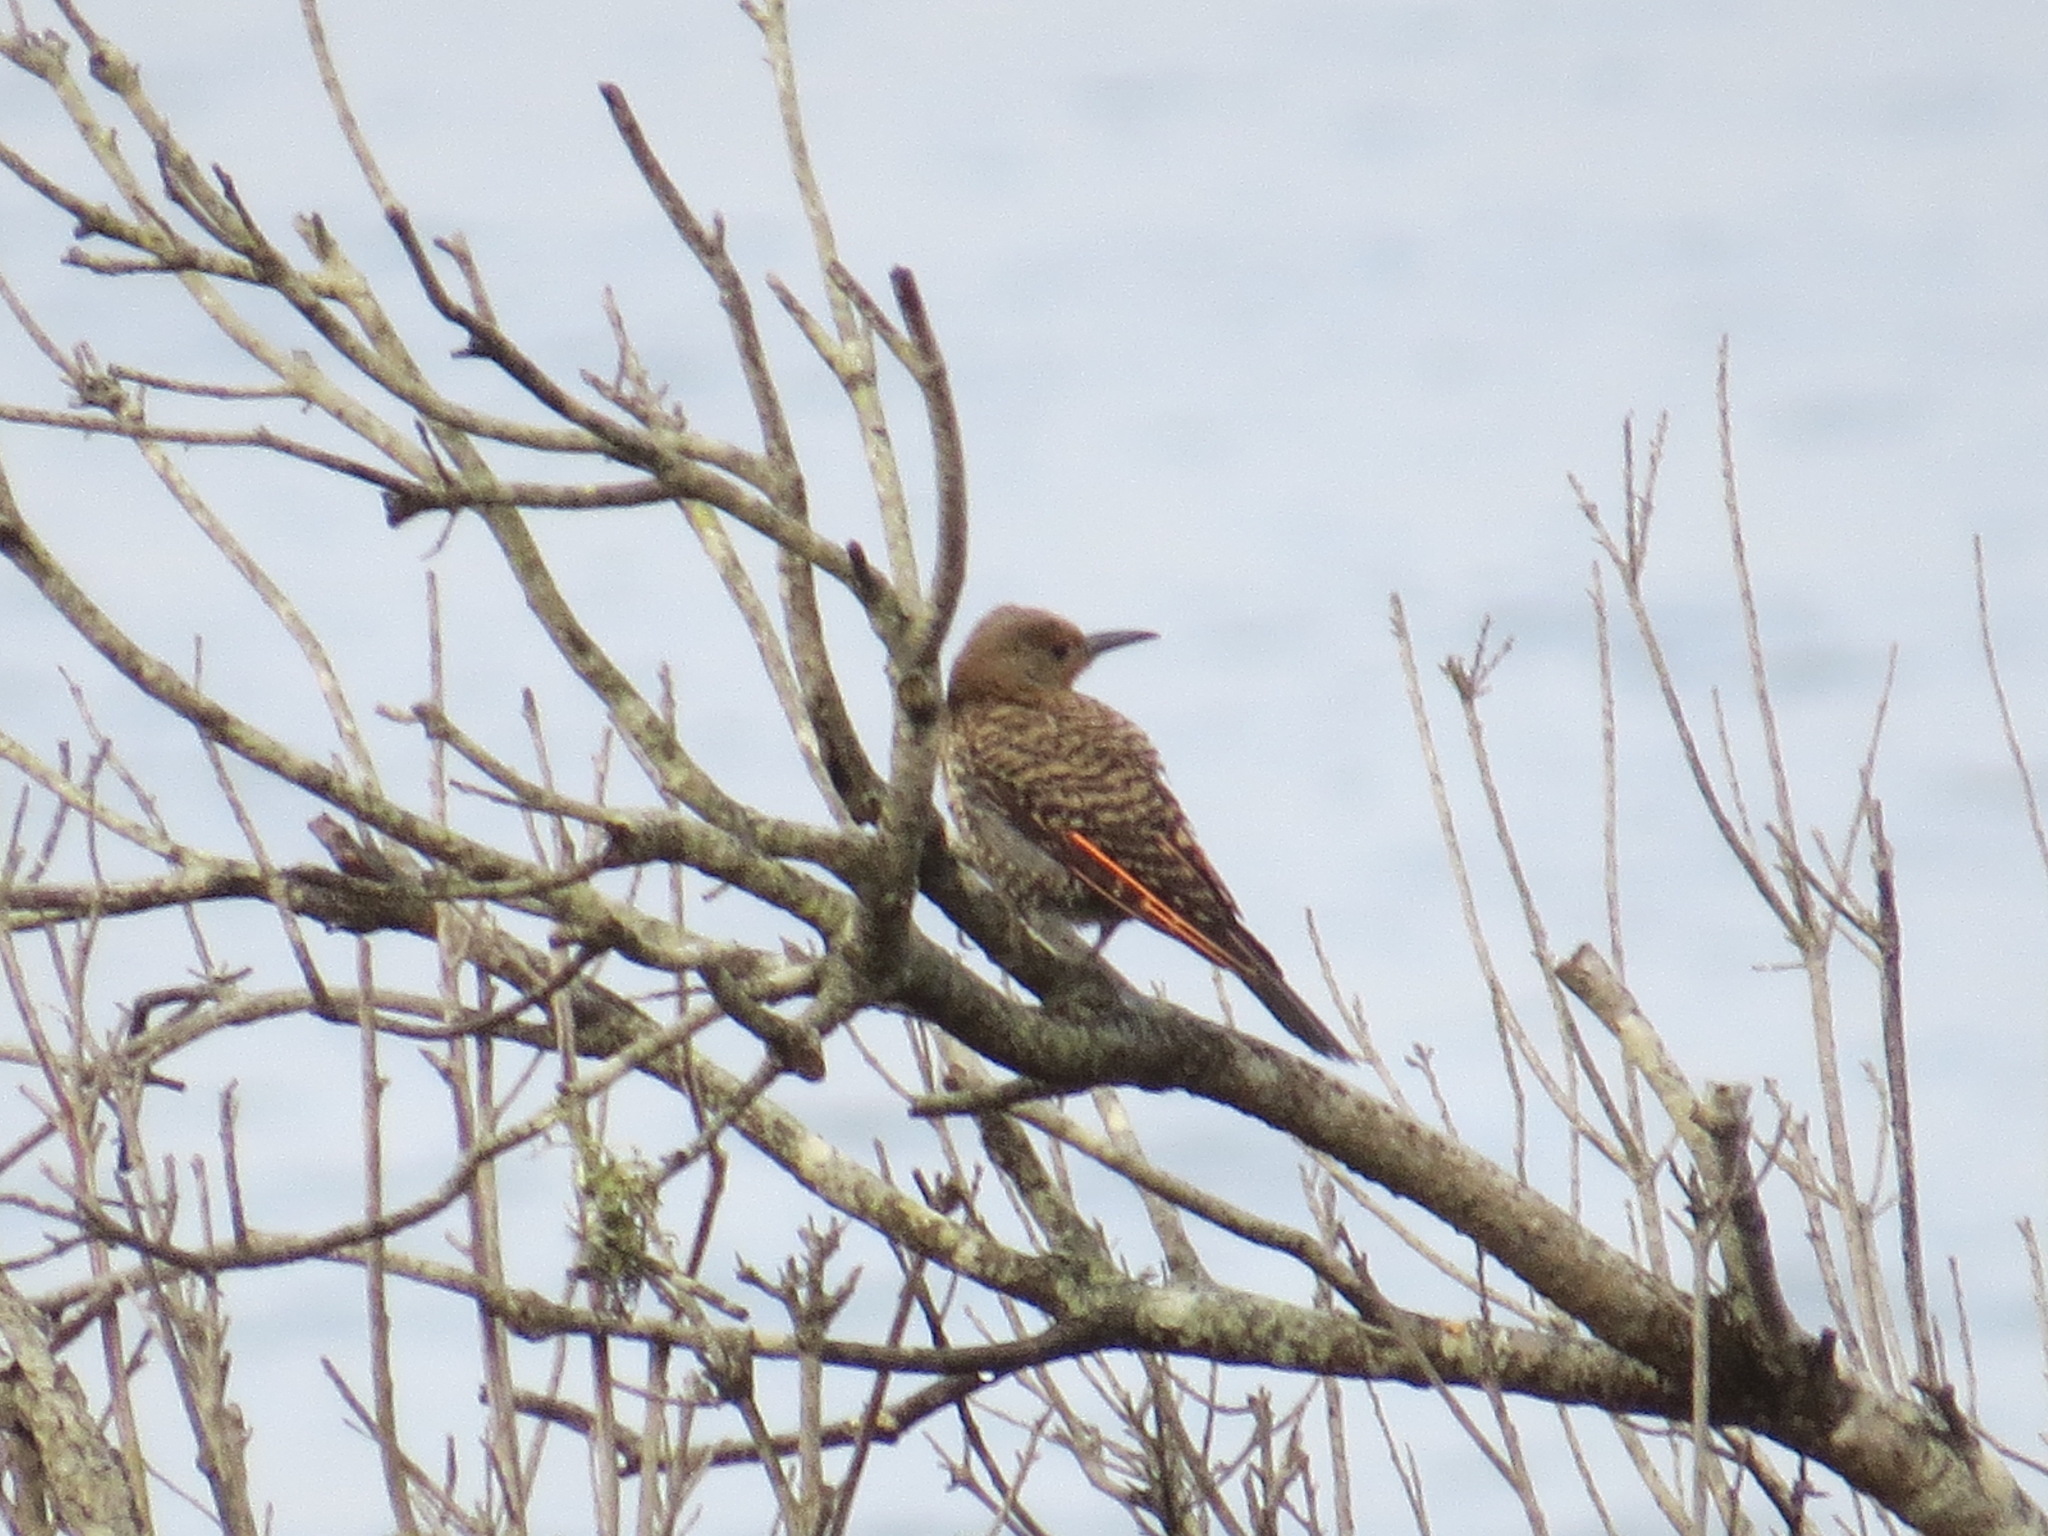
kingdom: Animalia
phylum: Chordata
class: Aves
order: Piciformes
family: Picidae
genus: Colaptes
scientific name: Colaptes auratus
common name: Northern flicker
